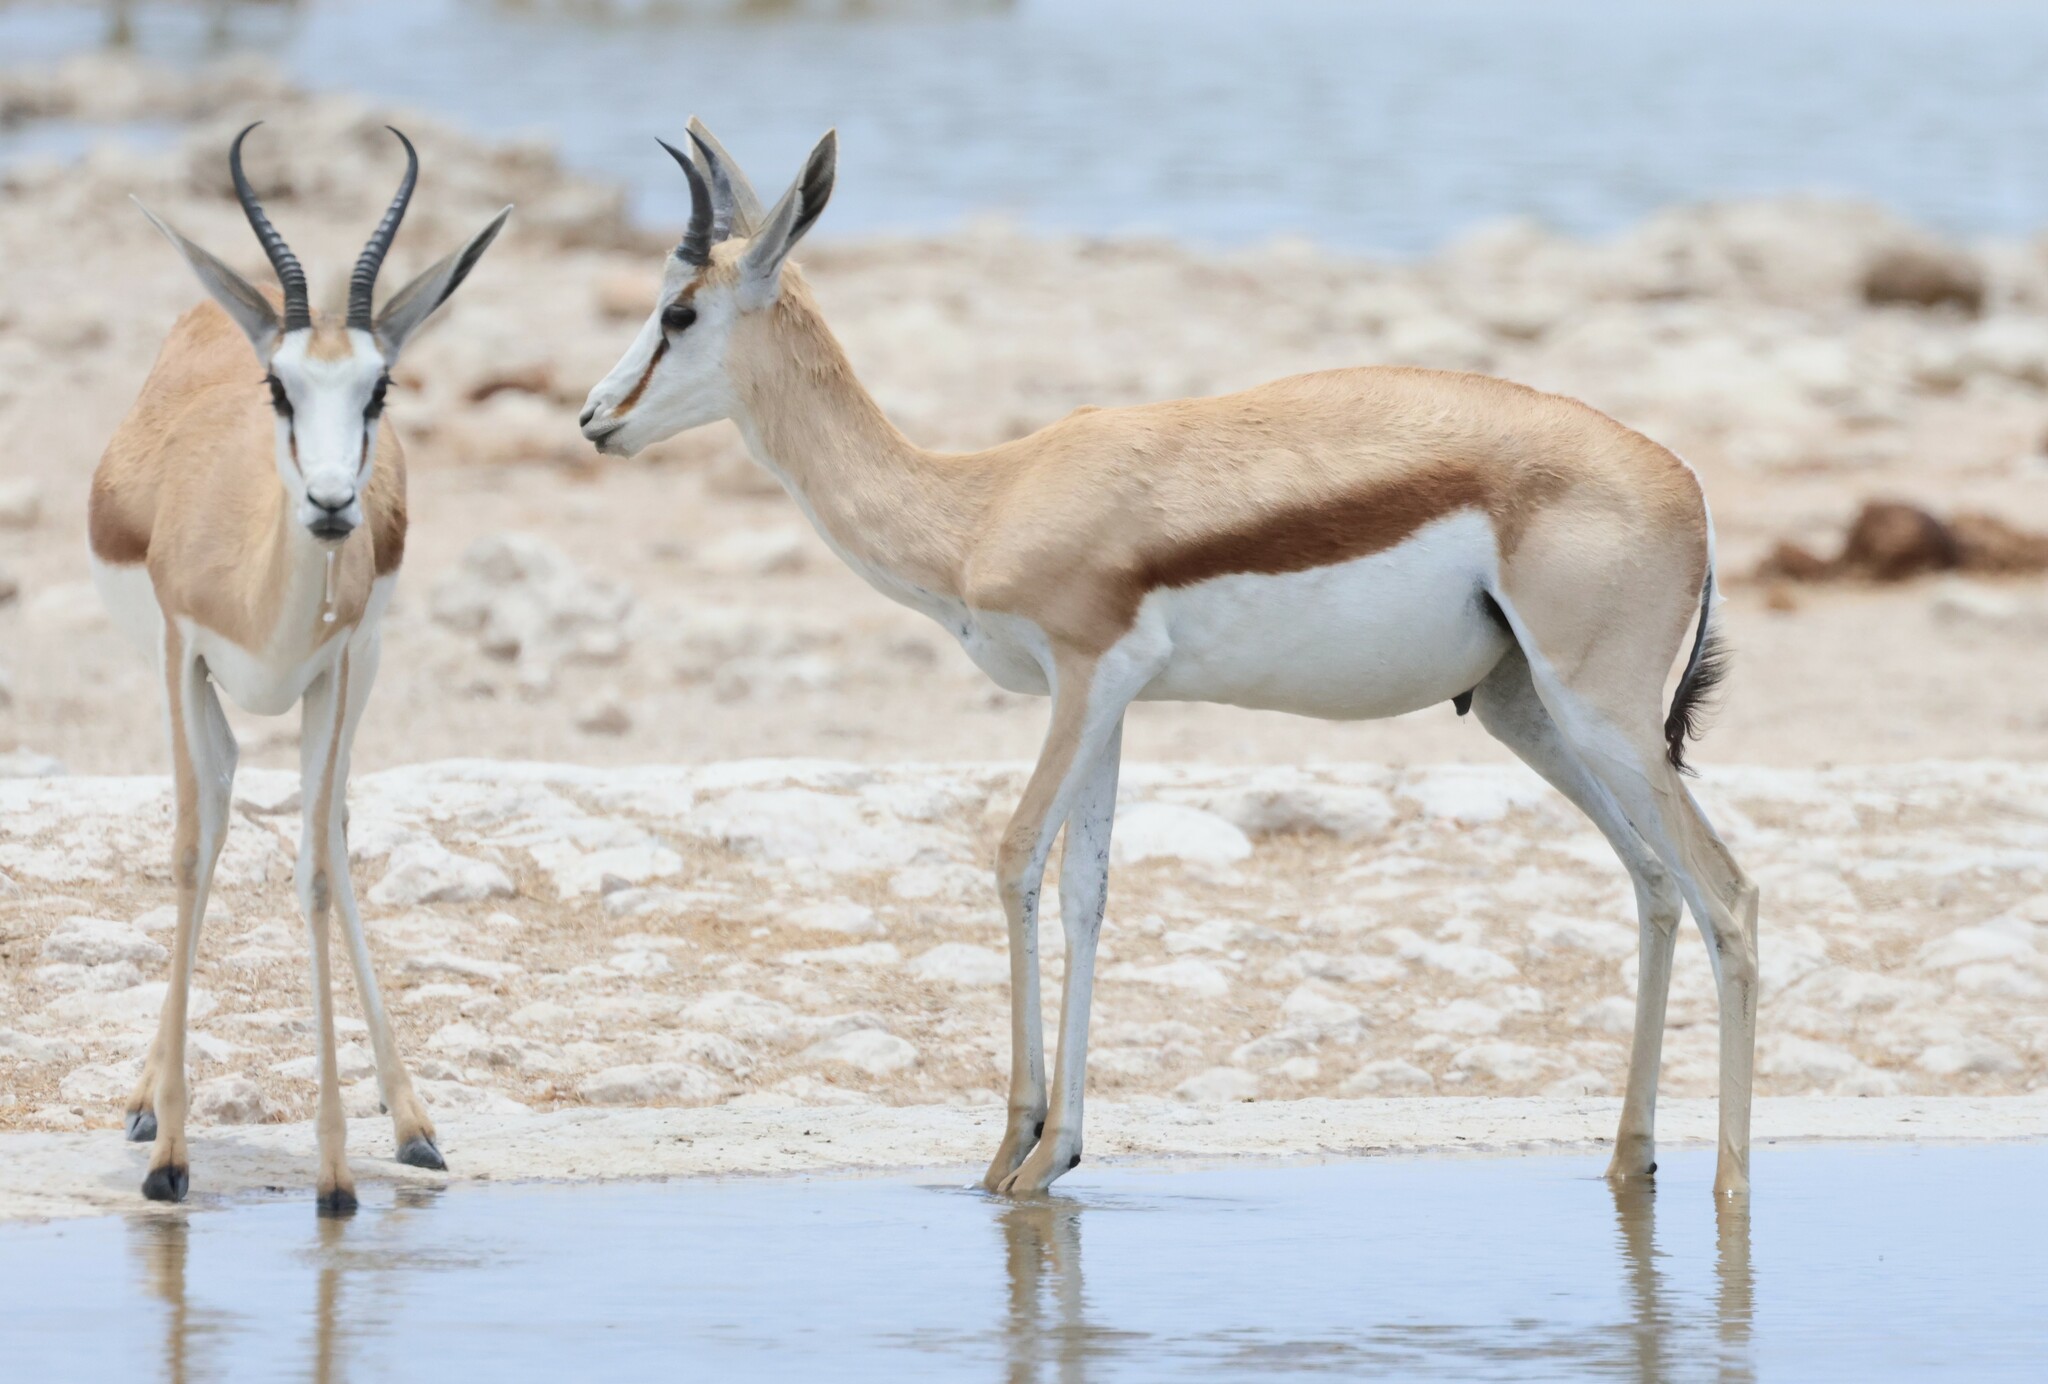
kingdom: Animalia
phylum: Chordata
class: Mammalia
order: Artiodactyla
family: Bovidae
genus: Antidorcas
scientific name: Antidorcas marsupialis
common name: Springbok
